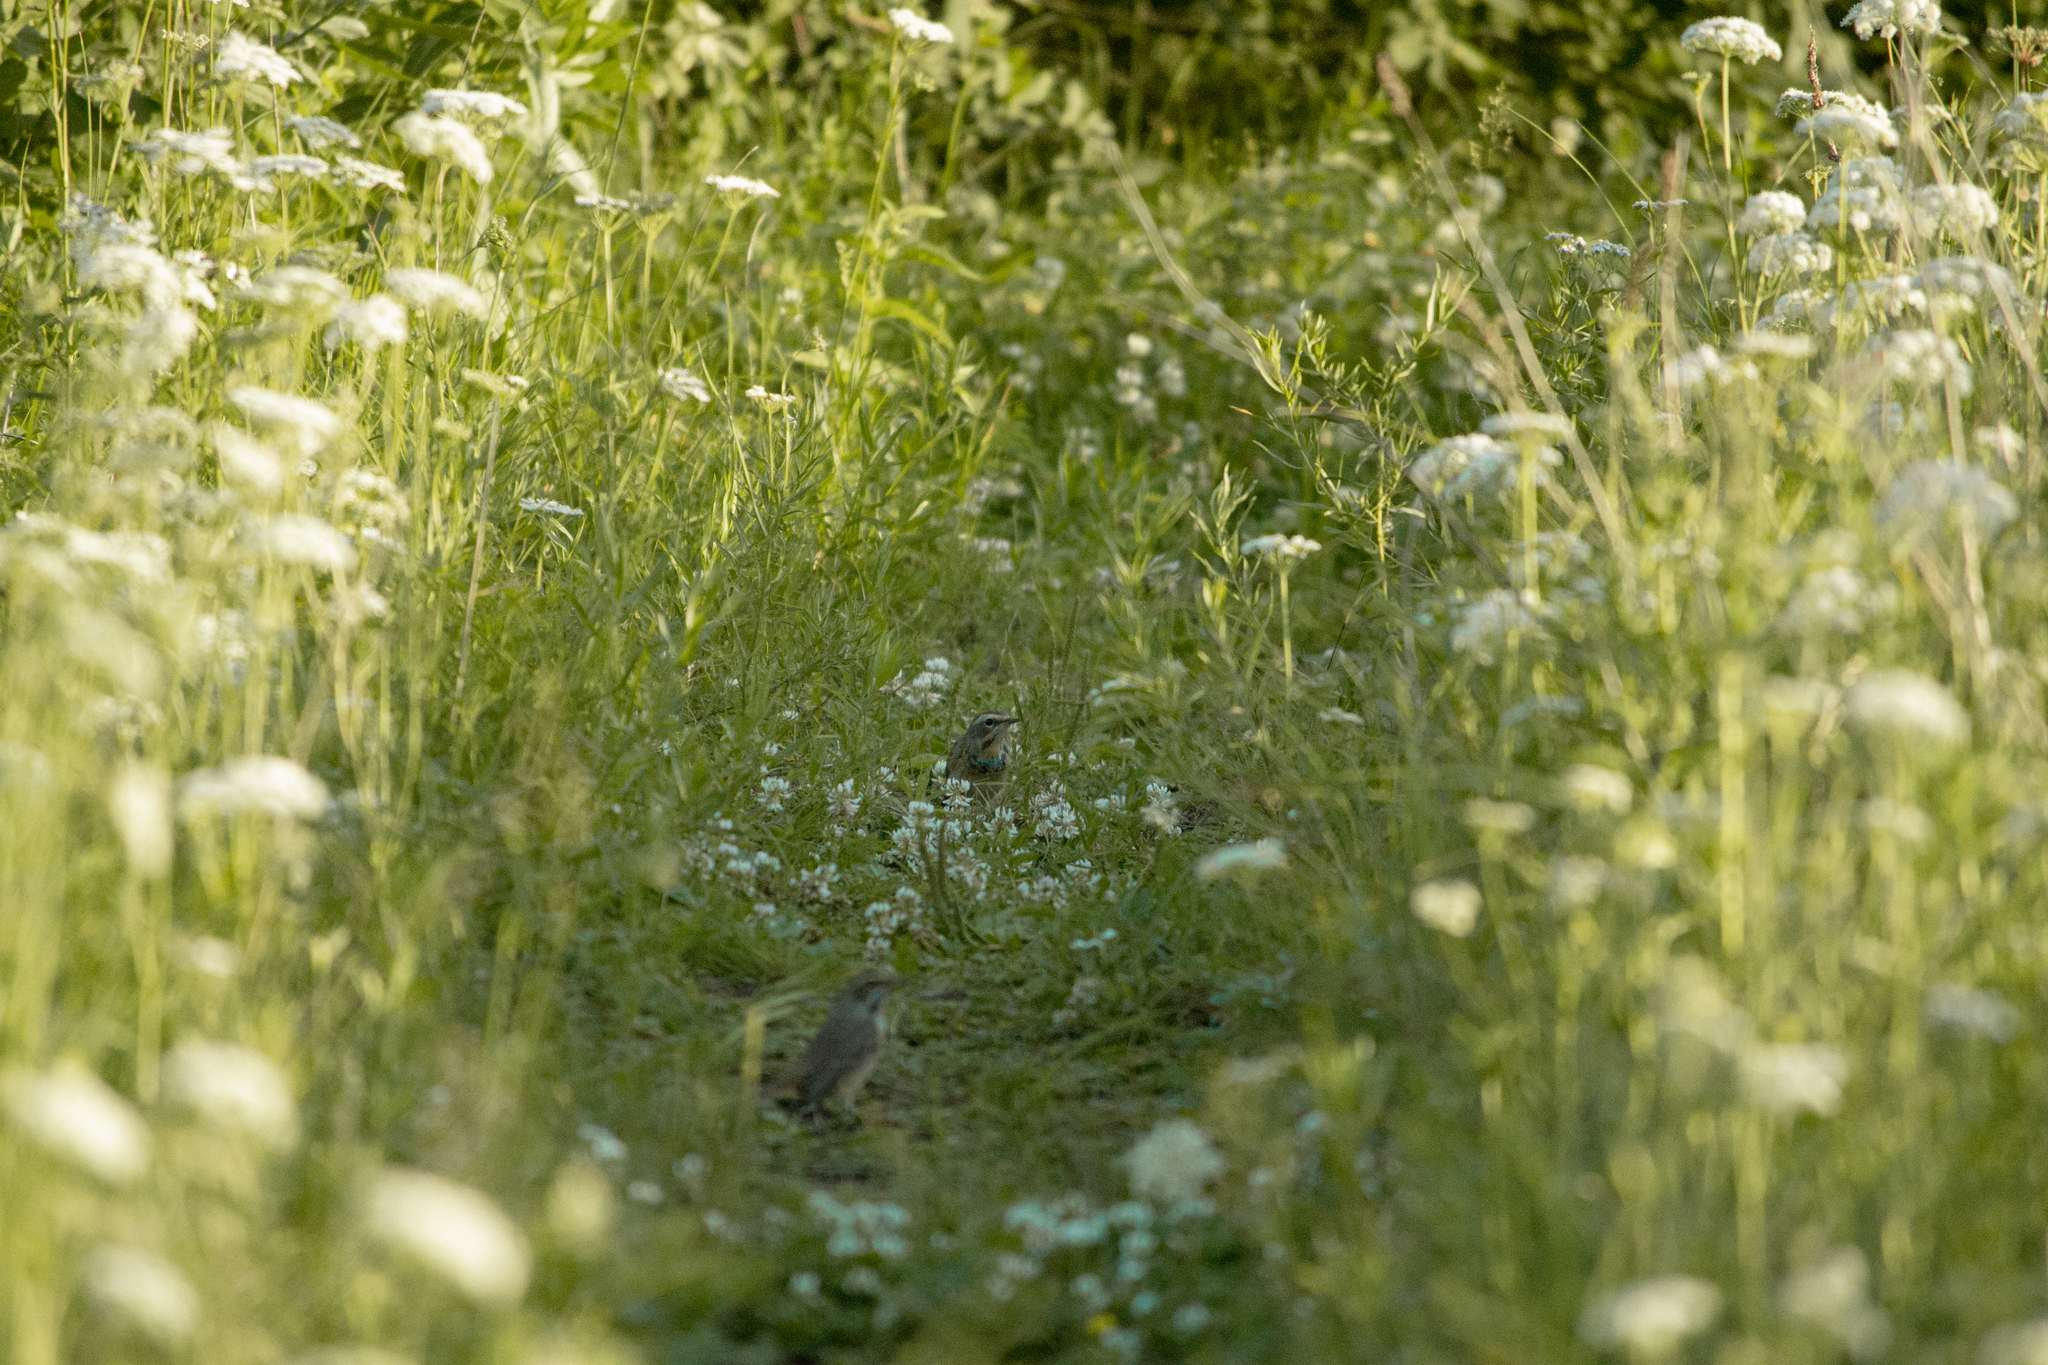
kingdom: Animalia
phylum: Chordata
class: Aves
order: Passeriformes
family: Muscicapidae
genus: Luscinia
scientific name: Luscinia svecica
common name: Bluethroat
